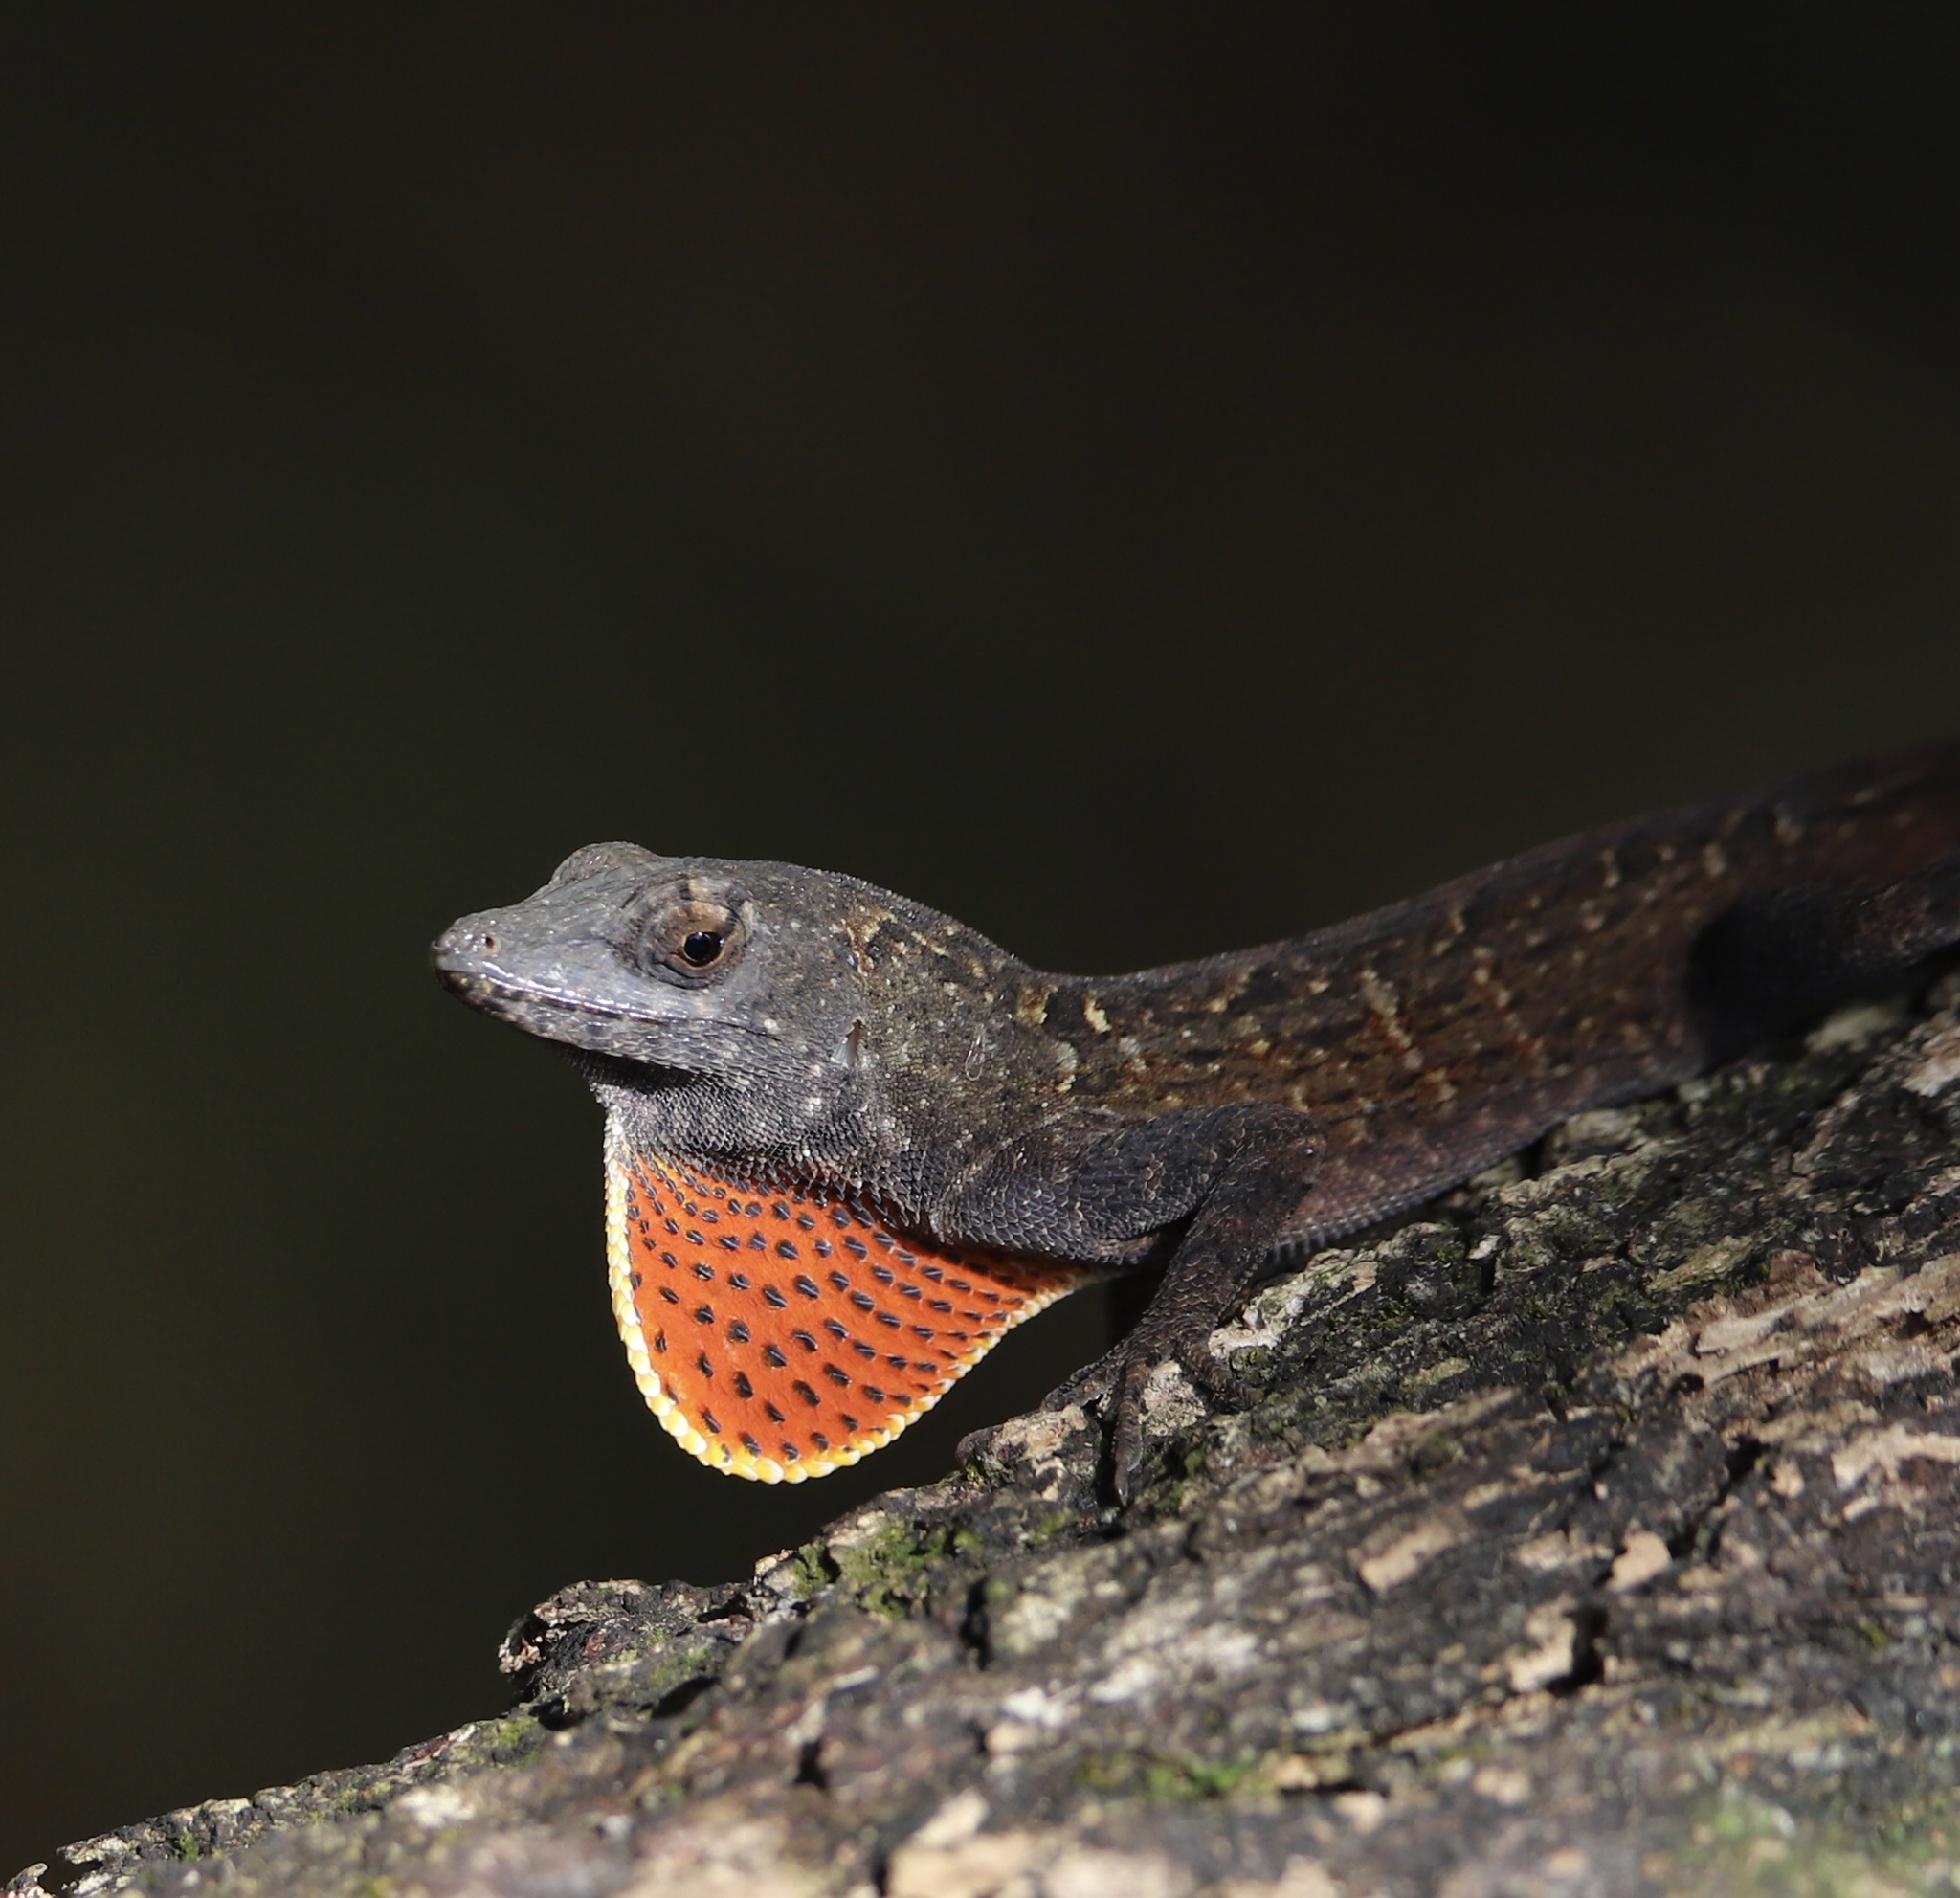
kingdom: Animalia
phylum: Chordata
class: Squamata
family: Dactyloidae
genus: Anolis
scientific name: Anolis sagrei
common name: Brown anole
